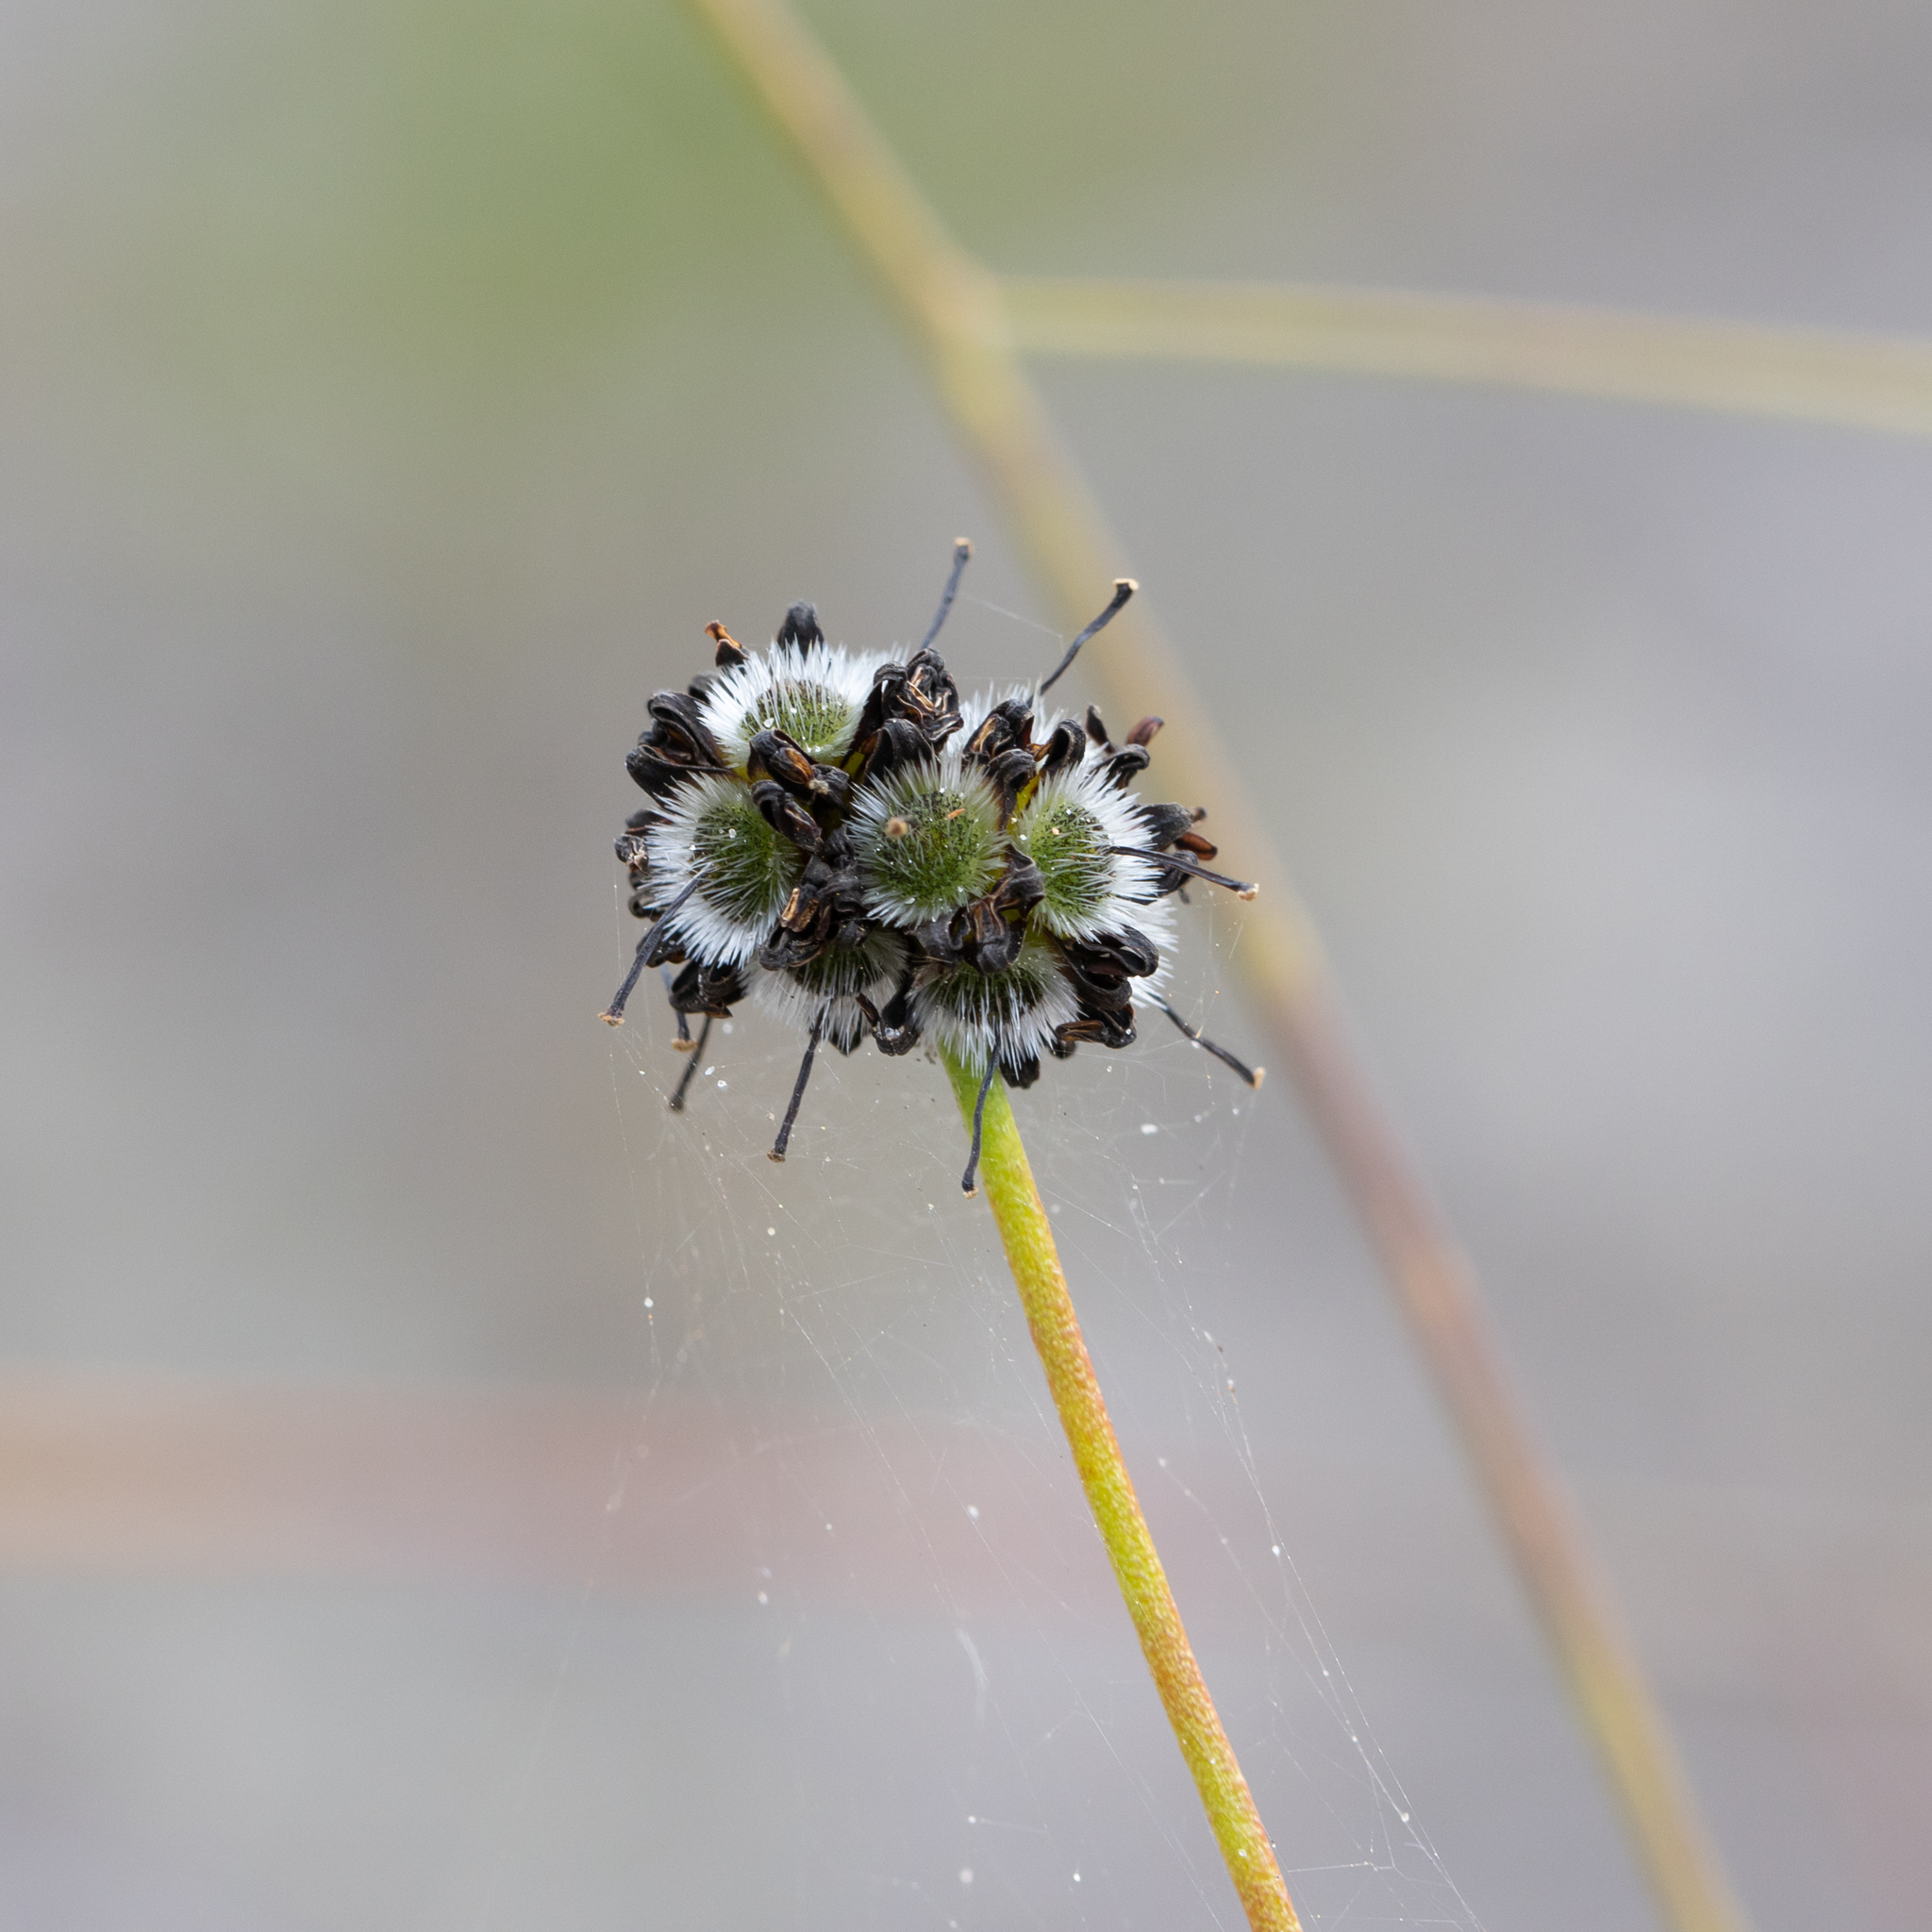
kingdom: Plantae
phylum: Tracheophyta
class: Magnoliopsida
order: Proteales
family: Proteaceae
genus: Stirlingia
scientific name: Stirlingia tenuifolia
